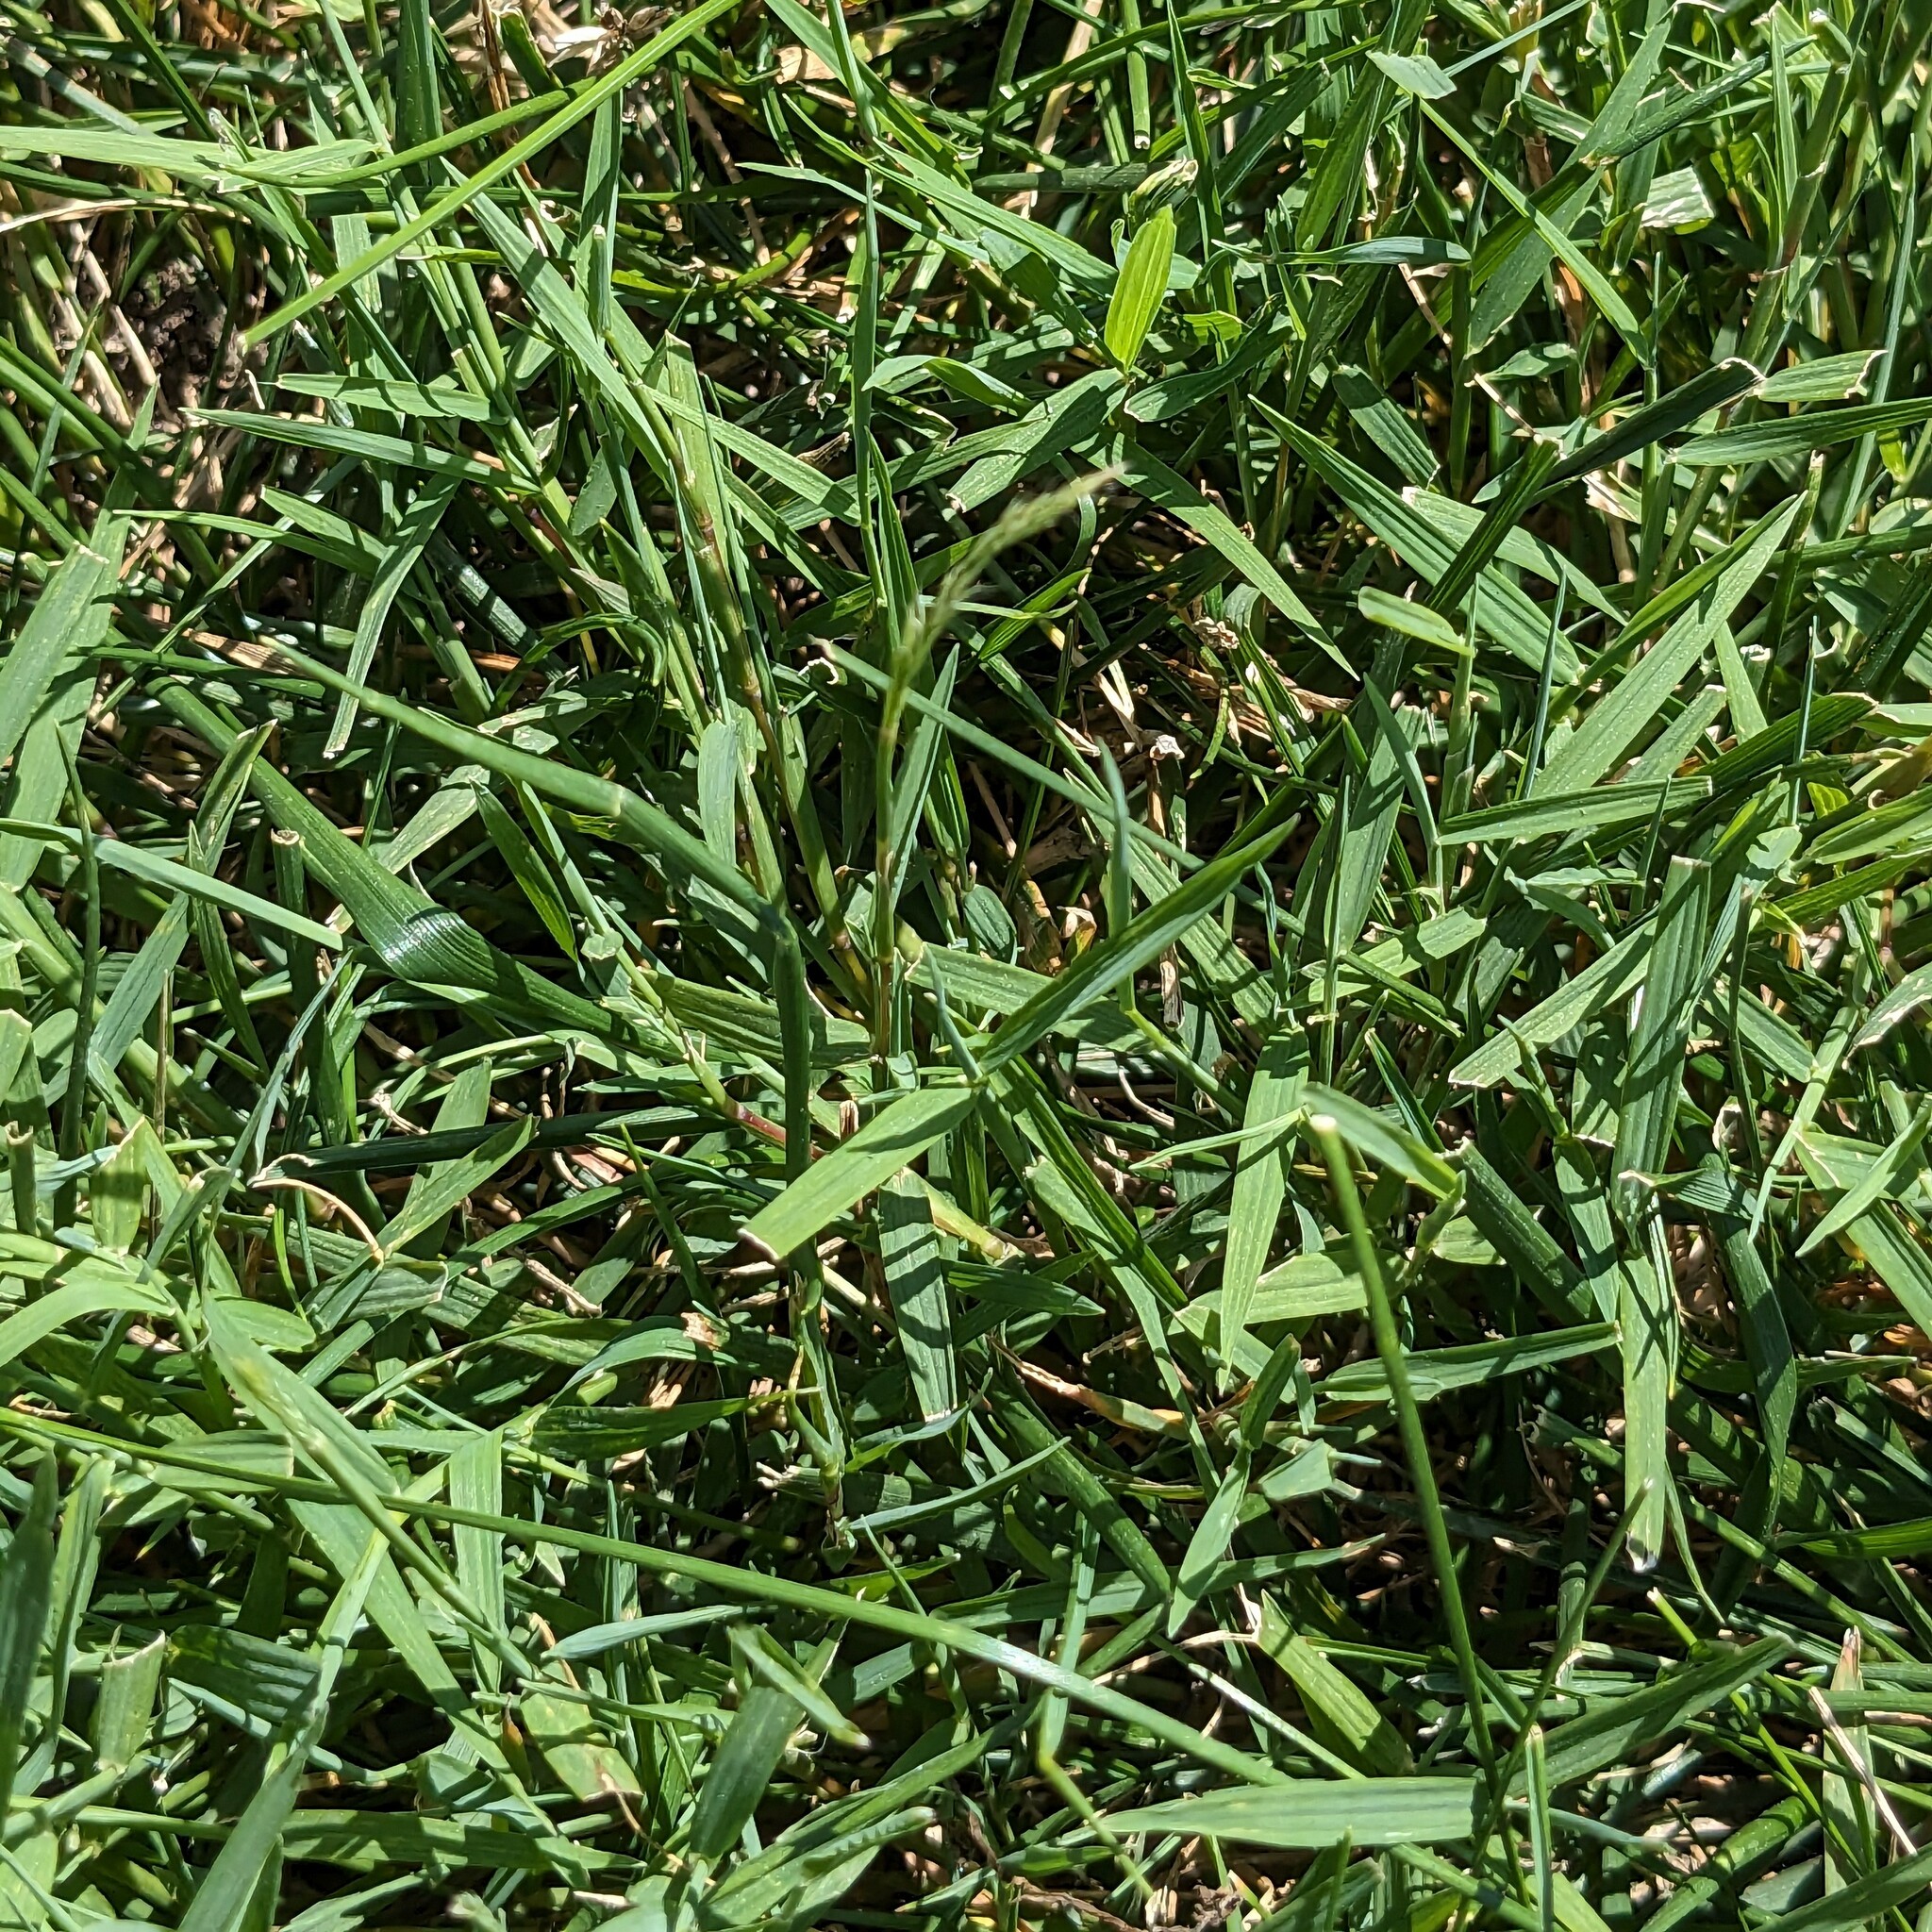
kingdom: Plantae
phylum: Tracheophyta
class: Liliopsida
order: Poales
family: Poaceae
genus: Muhlenbergia
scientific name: Muhlenbergia schreberi
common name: Nimblewill
